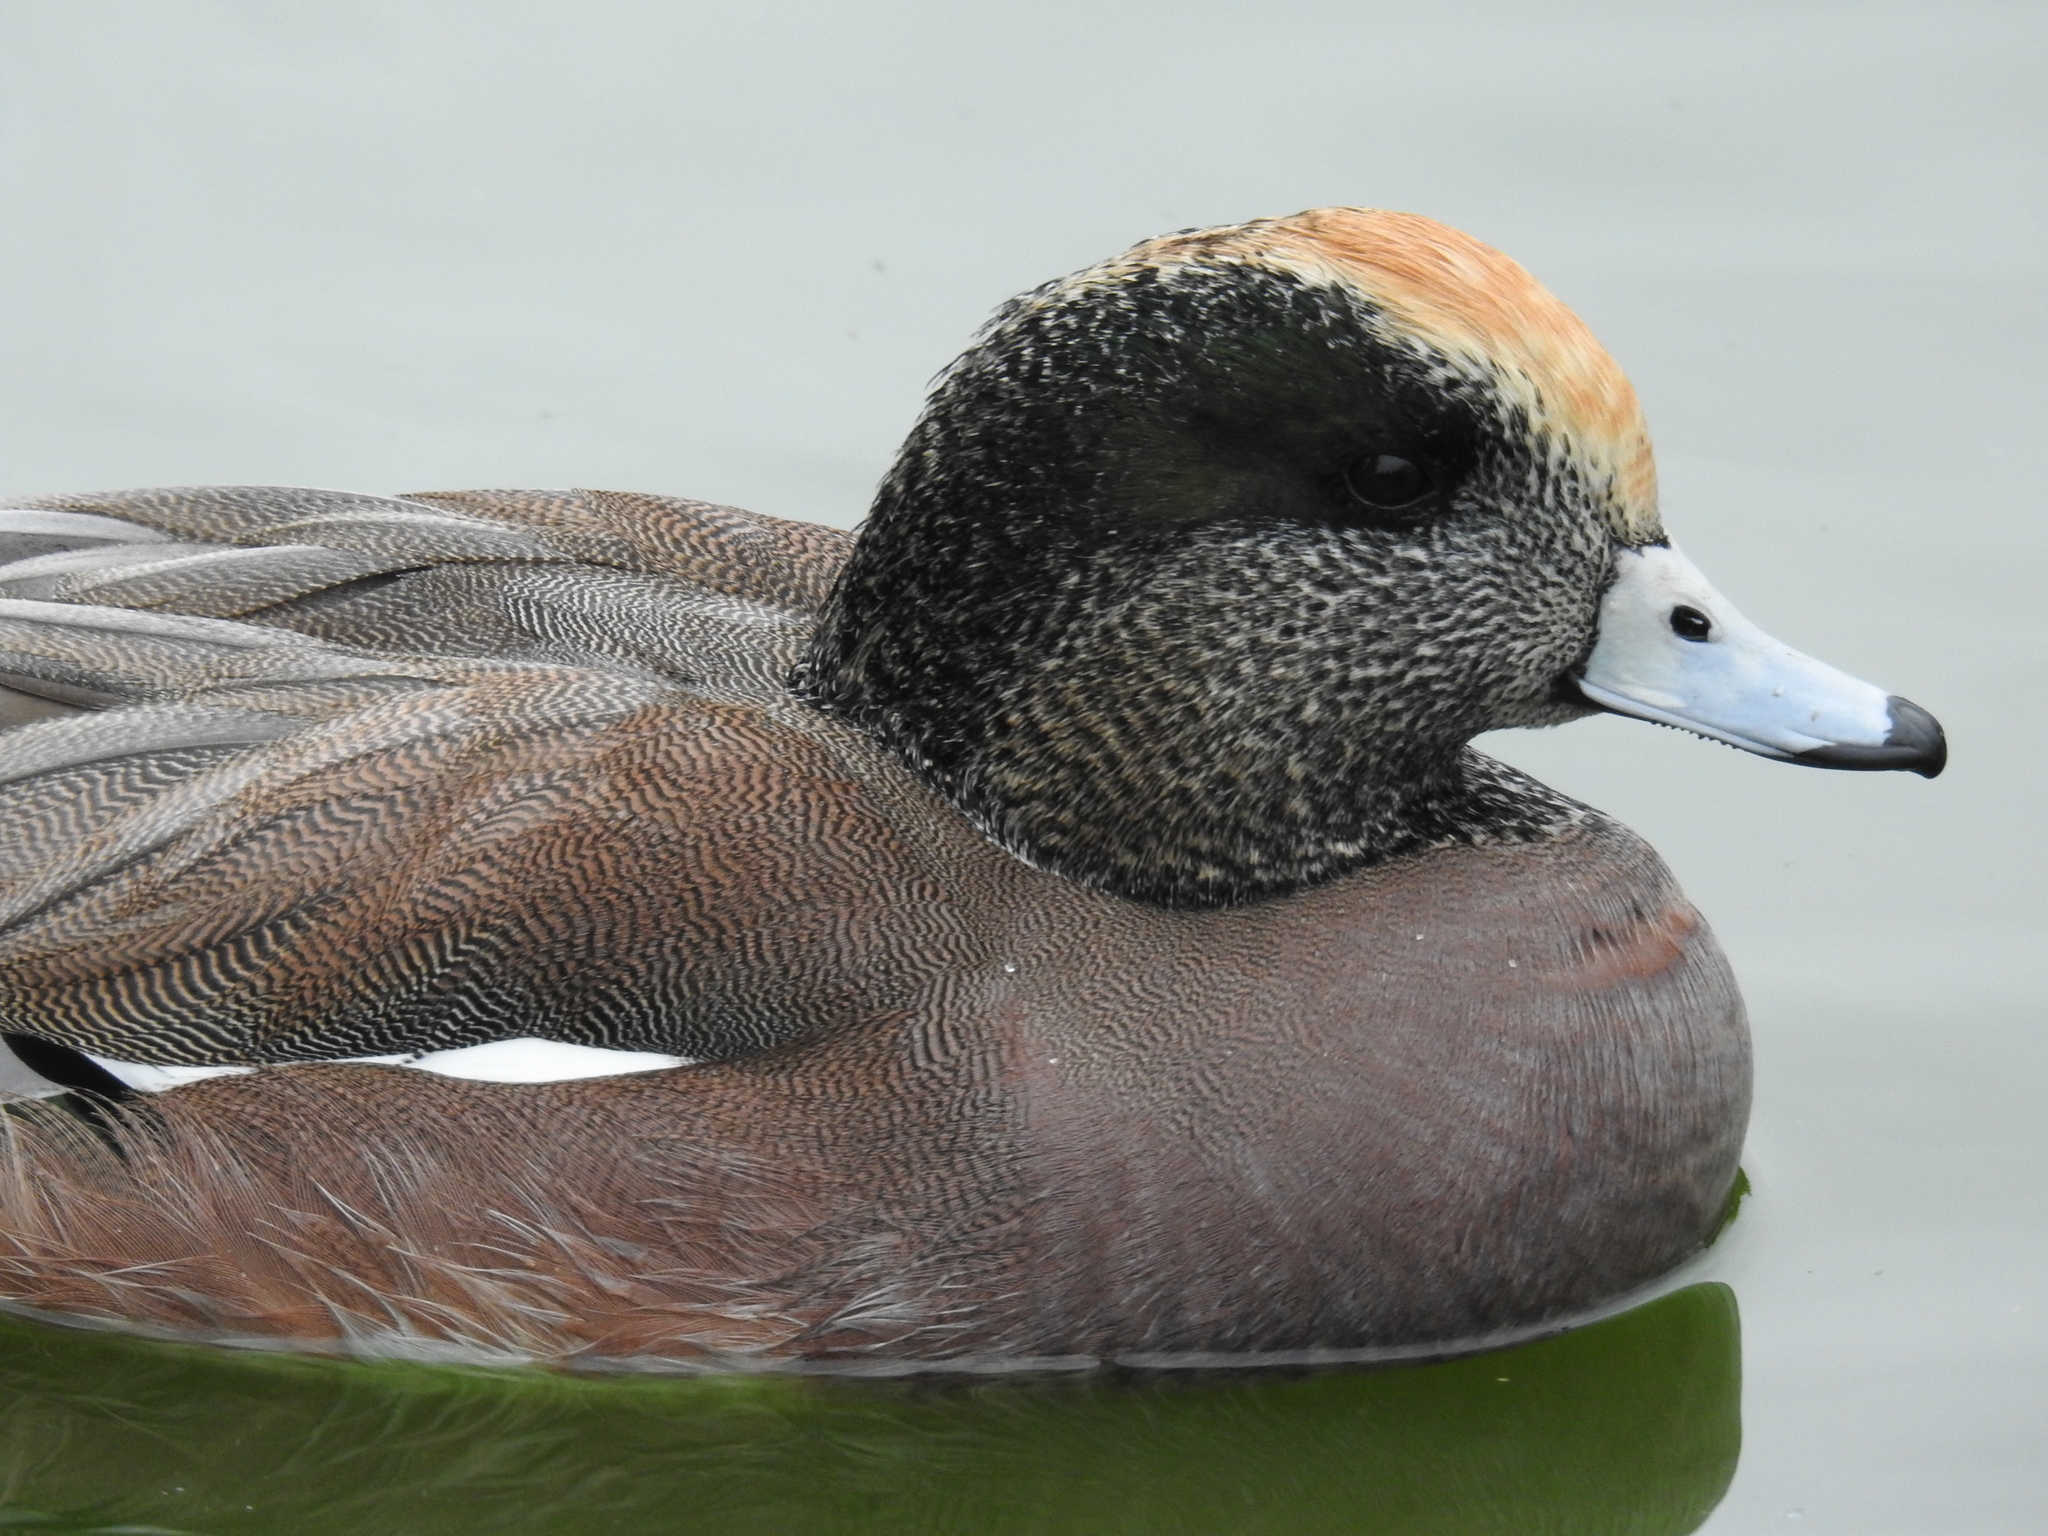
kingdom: Animalia
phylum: Chordata
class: Aves
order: Anseriformes
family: Anatidae
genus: Mareca
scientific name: Mareca americana
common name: American wigeon
